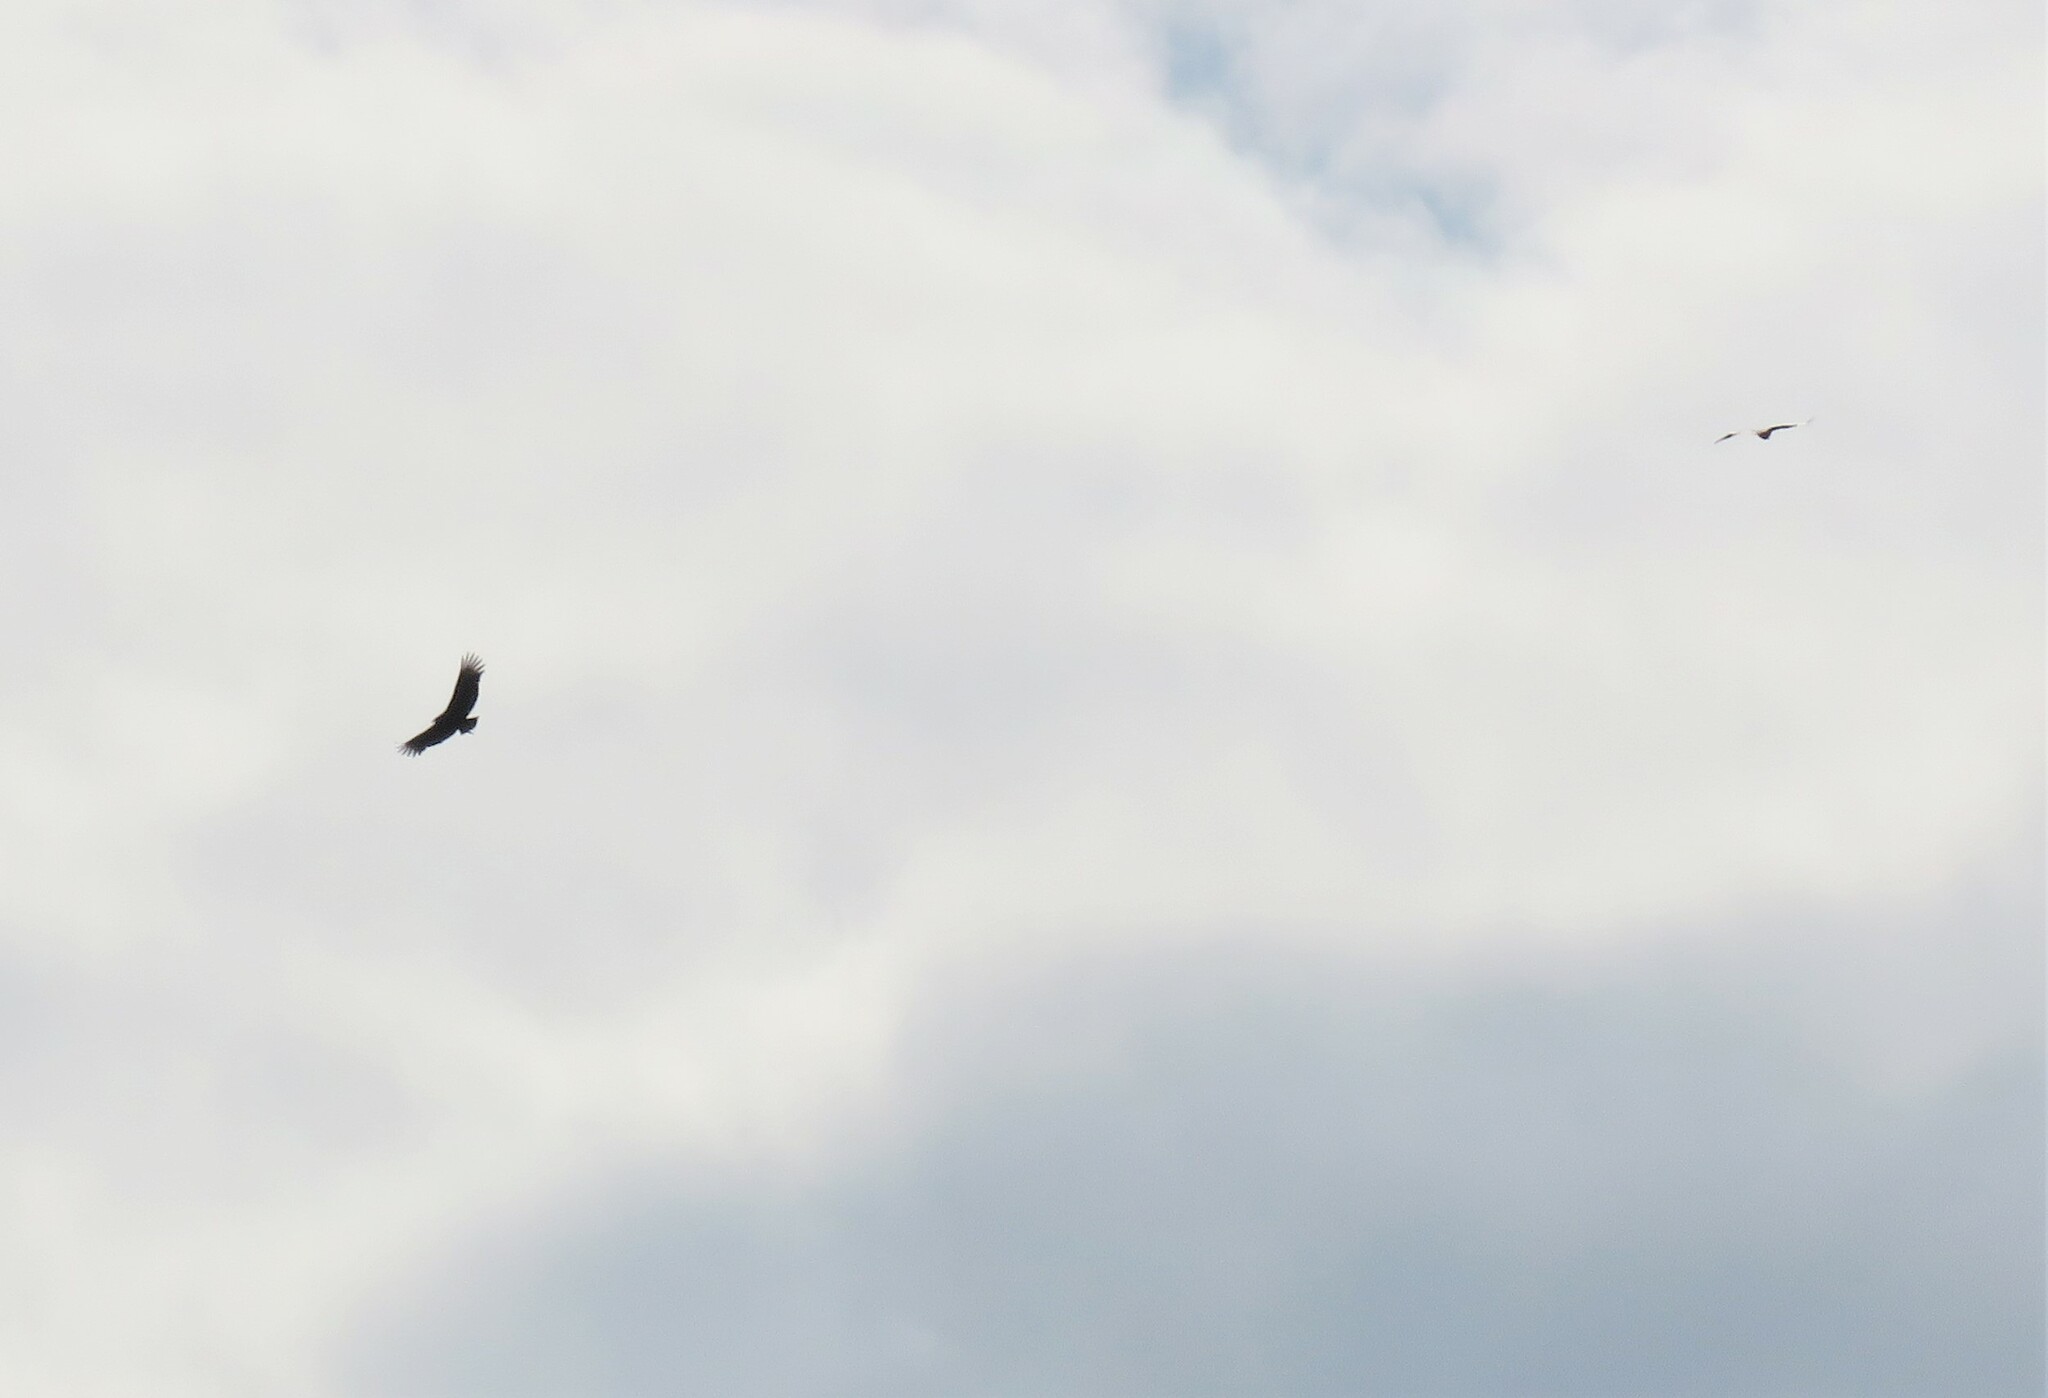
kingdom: Animalia
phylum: Chordata
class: Aves
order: Accipitriformes
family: Cathartidae
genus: Coragyps
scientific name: Coragyps atratus
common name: Black vulture
